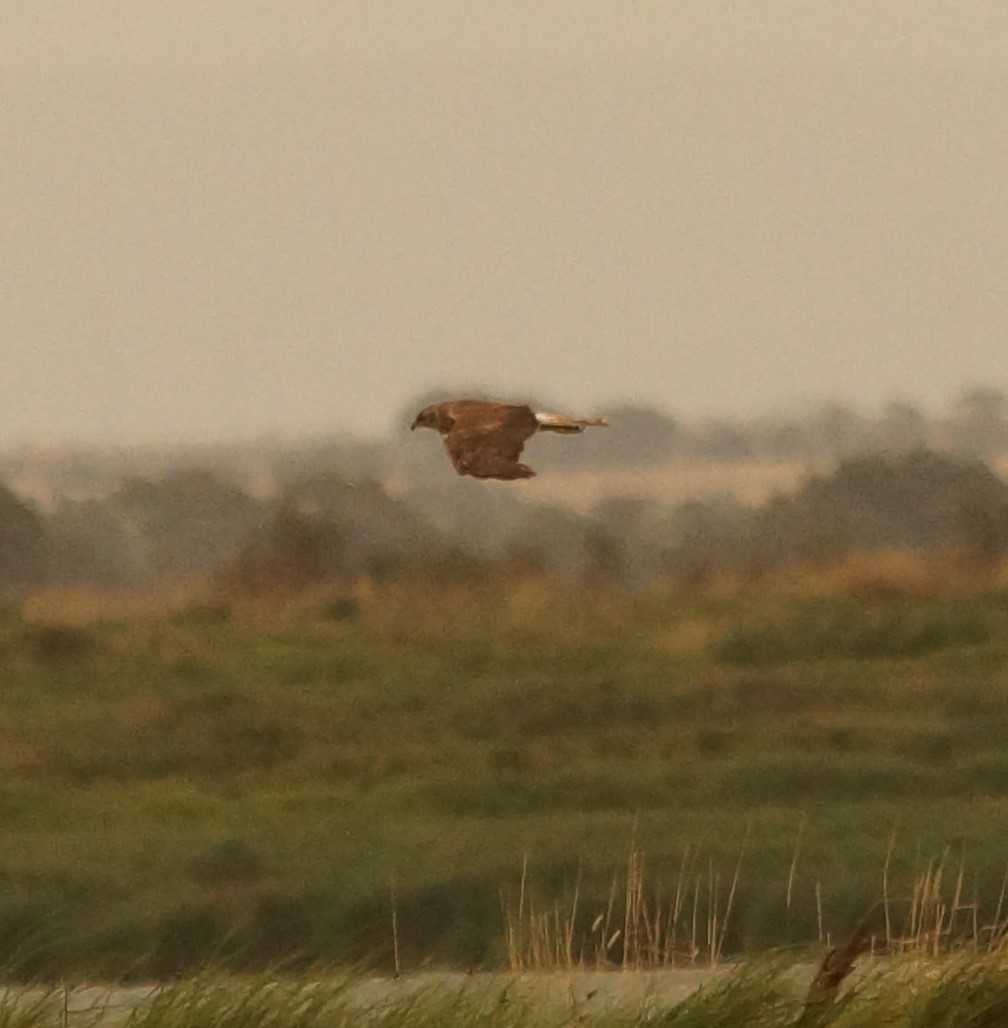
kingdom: Animalia
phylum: Chordata
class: Aves
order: Accipitriformes
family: Accipitridae
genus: Circus
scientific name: Circus approximans
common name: Swamp harrier
